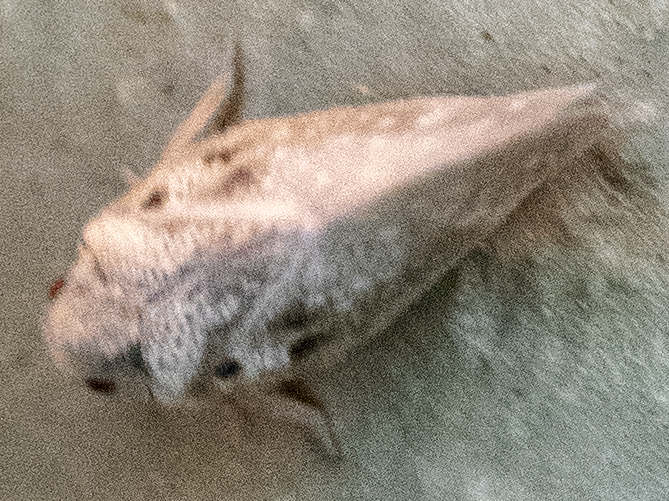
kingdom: Animalia
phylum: Arthropoda
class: Insecta
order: Hemiptera
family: Flatidae
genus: Metcalfa
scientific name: Metcalfa pruinosa
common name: Citrus flatid planthopper
